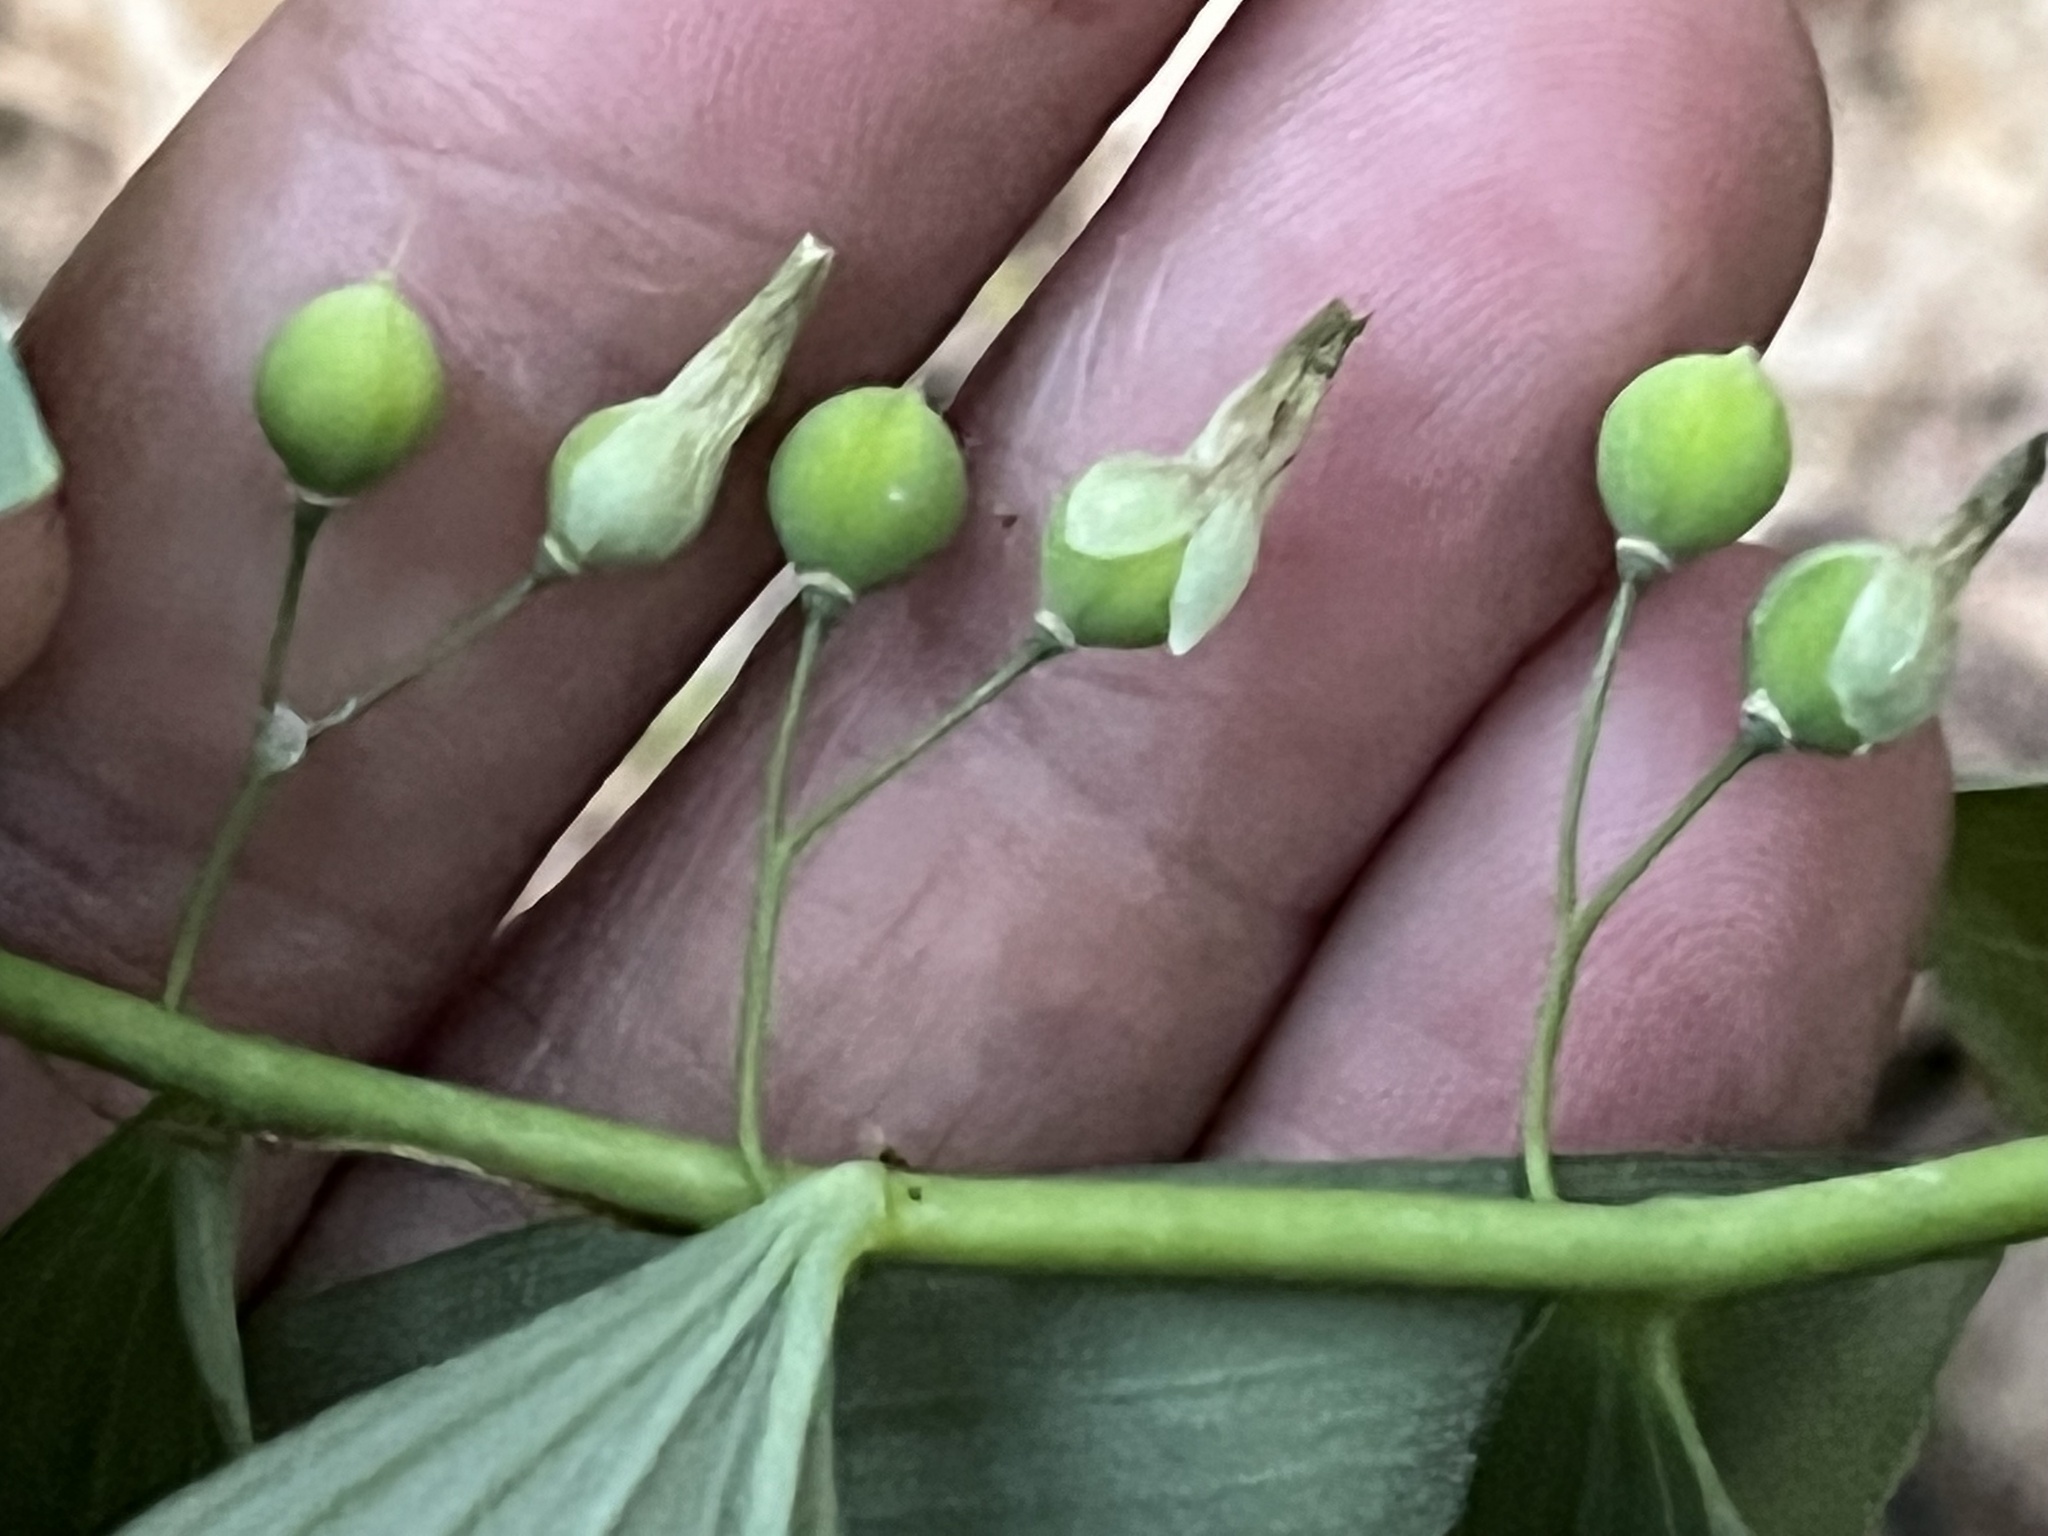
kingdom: Plantae
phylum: Tracheophyta
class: Liliopsida
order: Asparagales
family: Asparagaceae
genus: Polygonatum
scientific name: Polygonatum pubescens
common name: Downy solomon's seal
